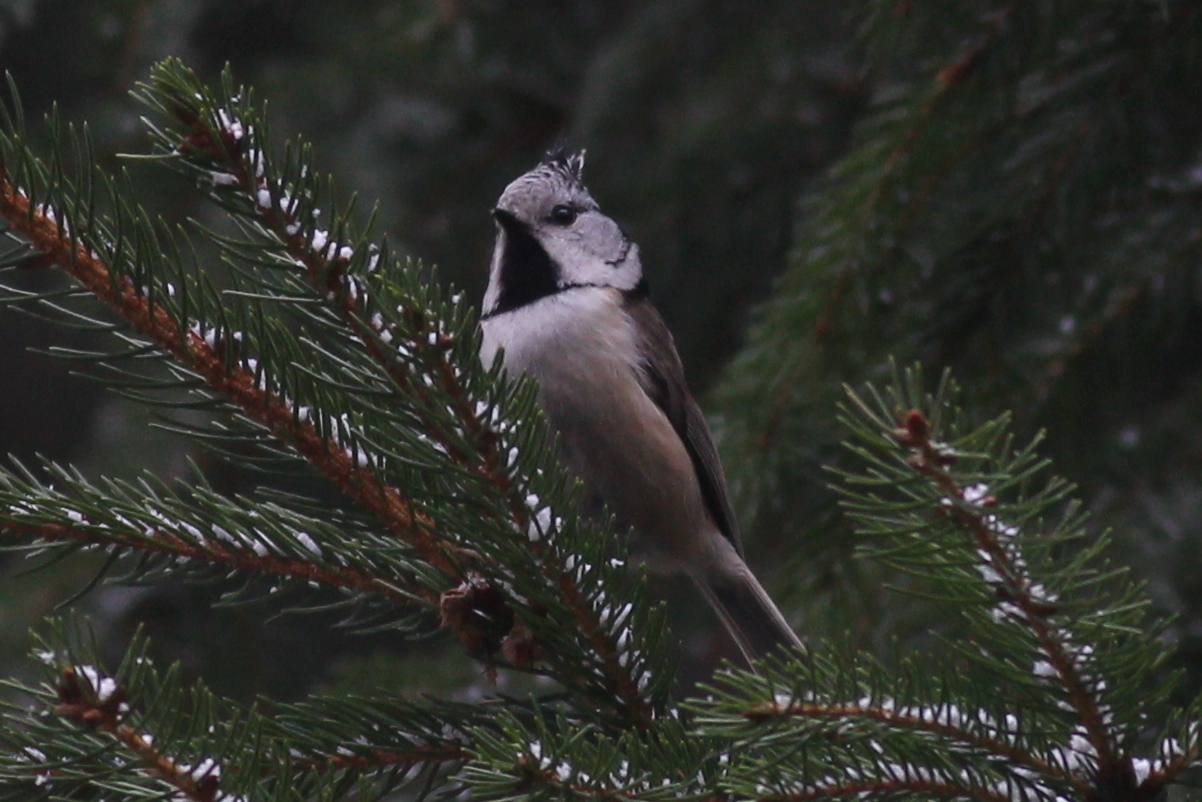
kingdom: Animalia
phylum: Chordata
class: Aves
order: Passeriformes
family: Paridae
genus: Lophophanes
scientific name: Lophophanes cristatus
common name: European crested tit
